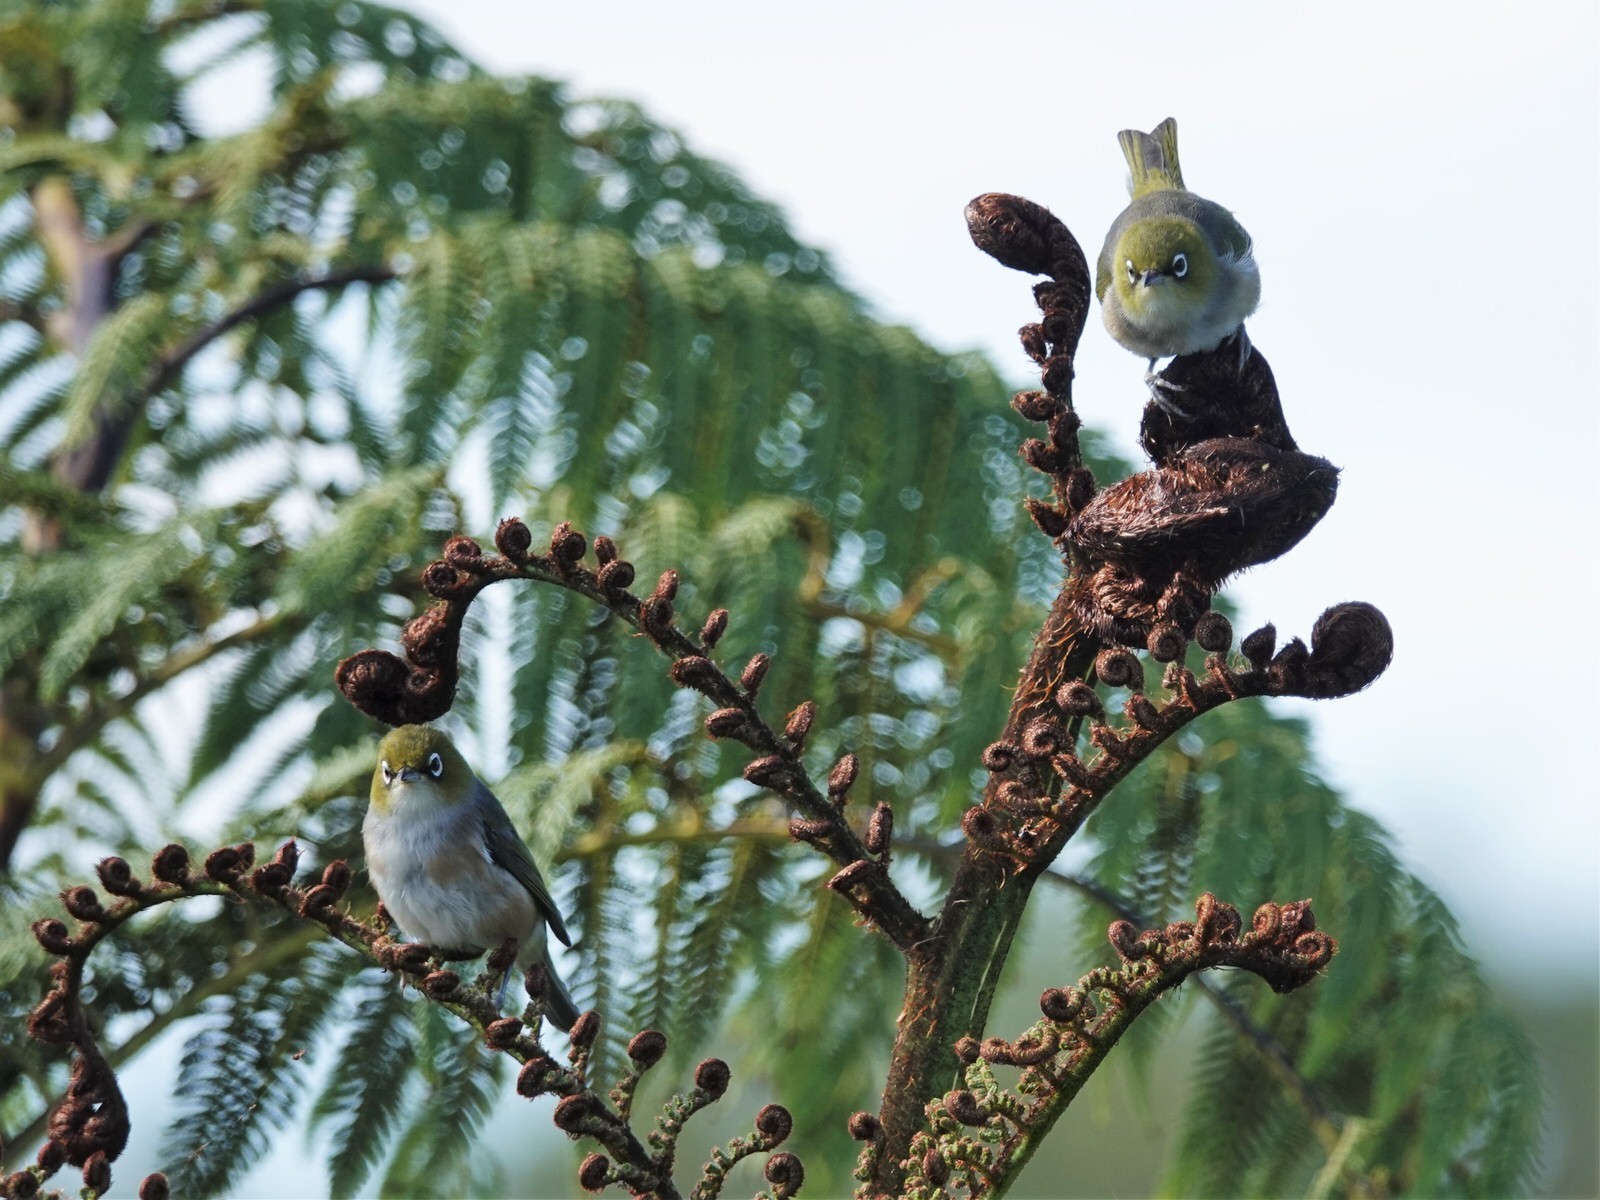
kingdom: Animalia
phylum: Chordata
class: Aves
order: Passeriformes
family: Zosteropidae
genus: Zosterops
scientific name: Zosterops lateralis
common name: Silvereye
